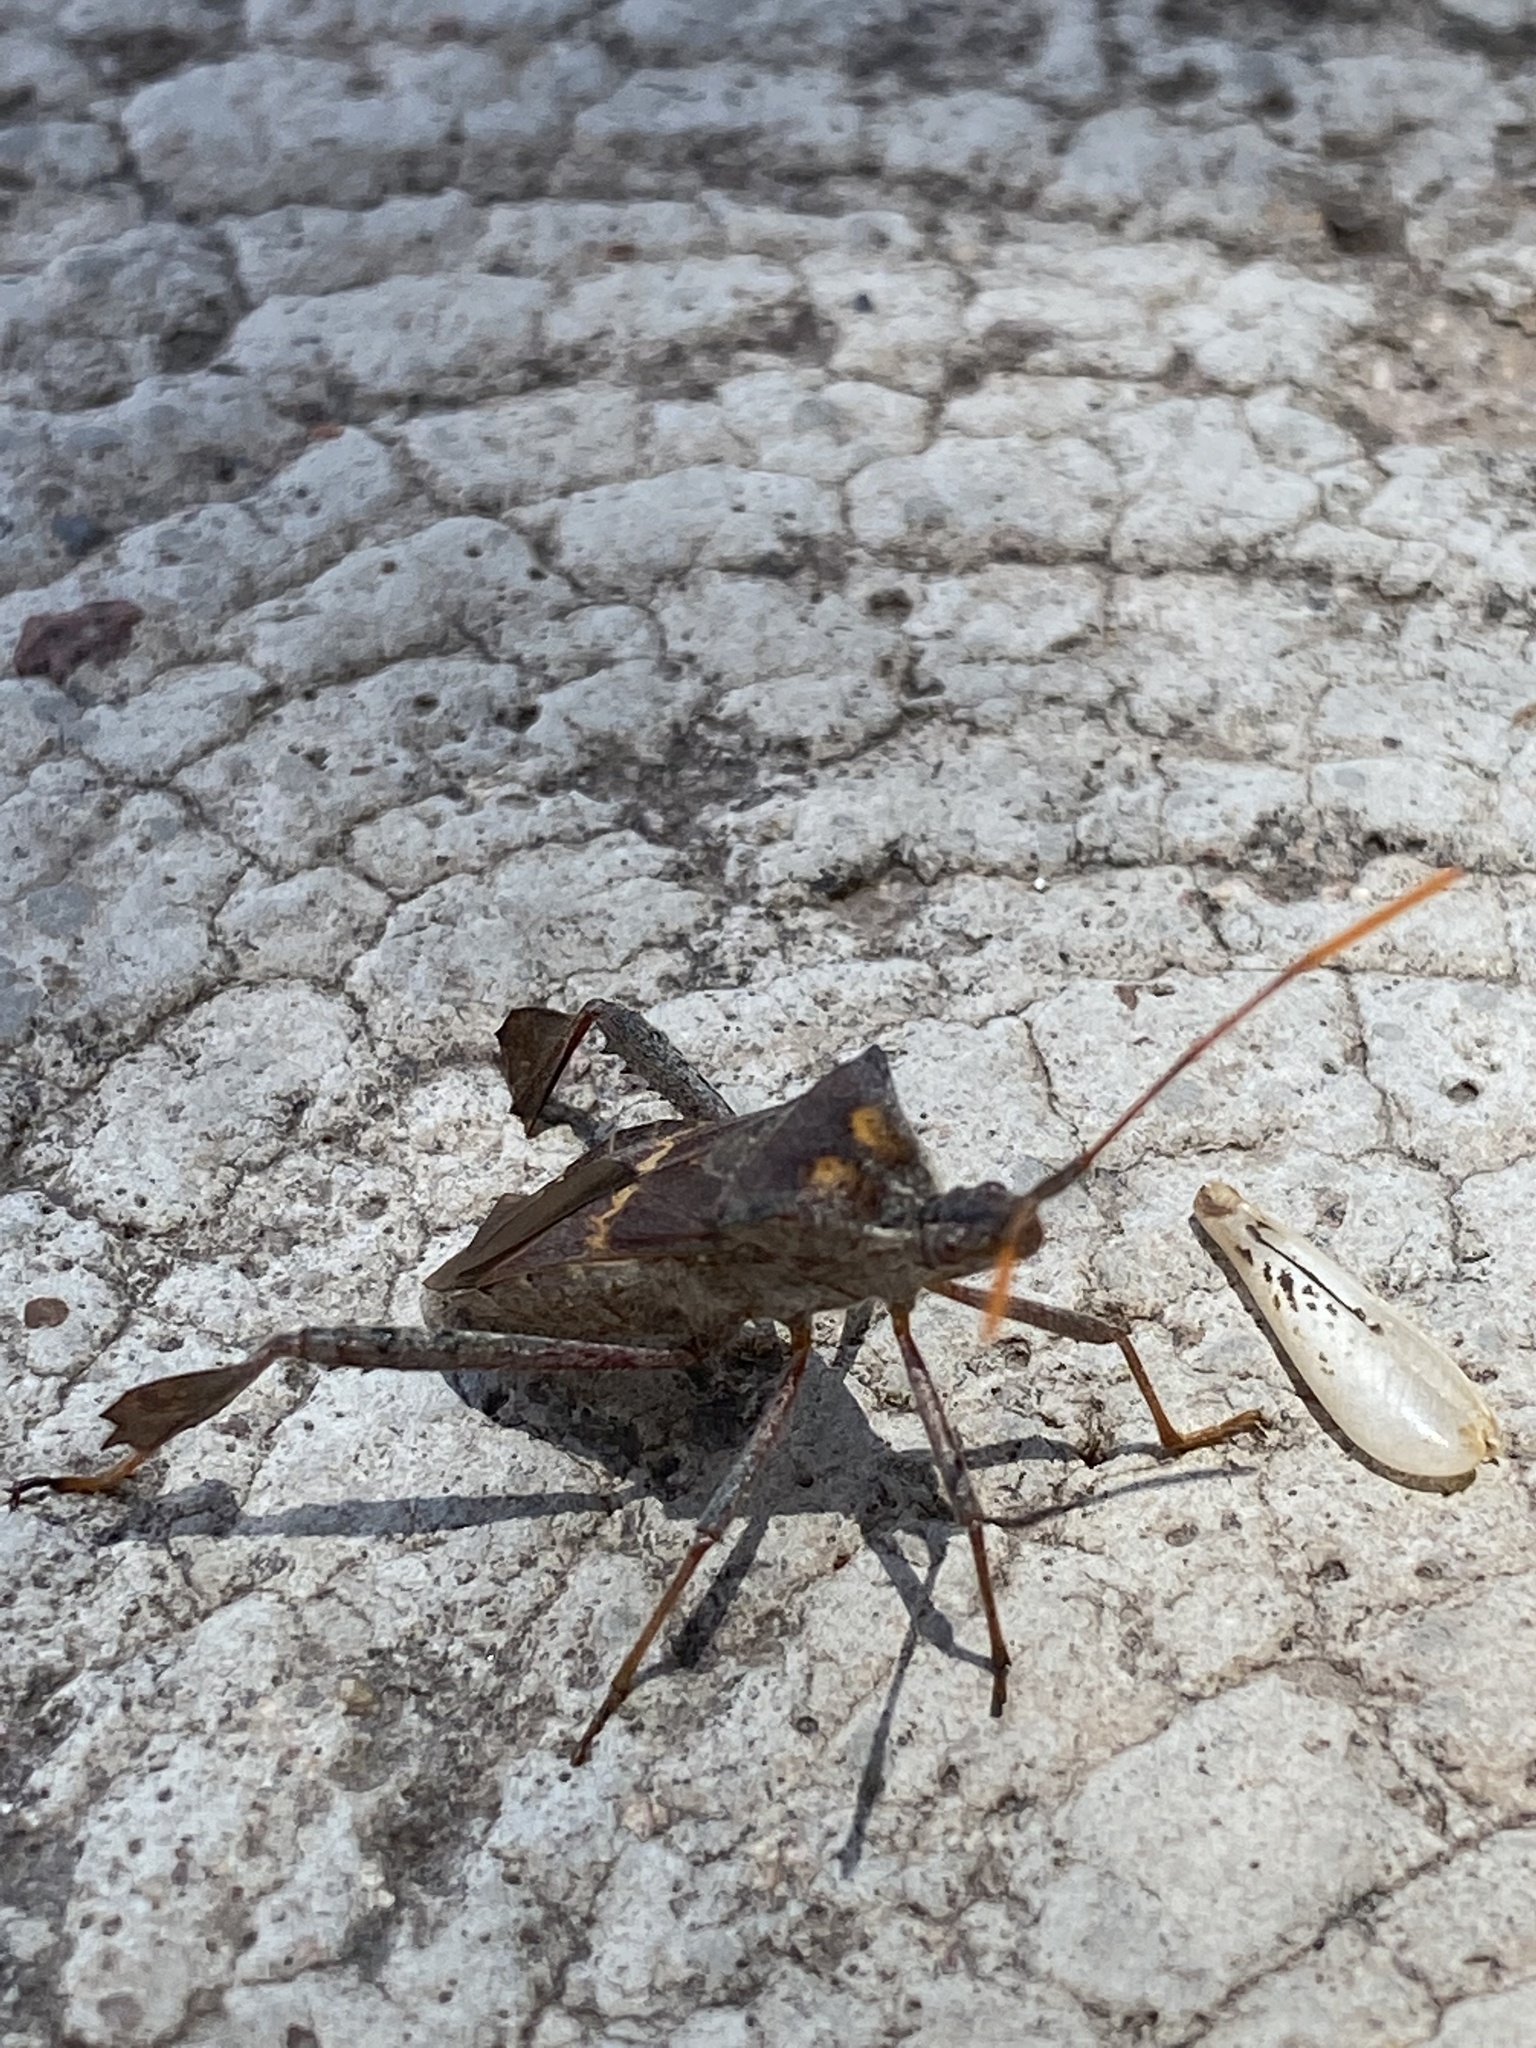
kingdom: Animalia
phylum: Arthropoda
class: Insecta
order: Hemiptera
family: Coreidae
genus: Leptoglossus
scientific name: Leptoglossus zonatus
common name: Large-legged bug
